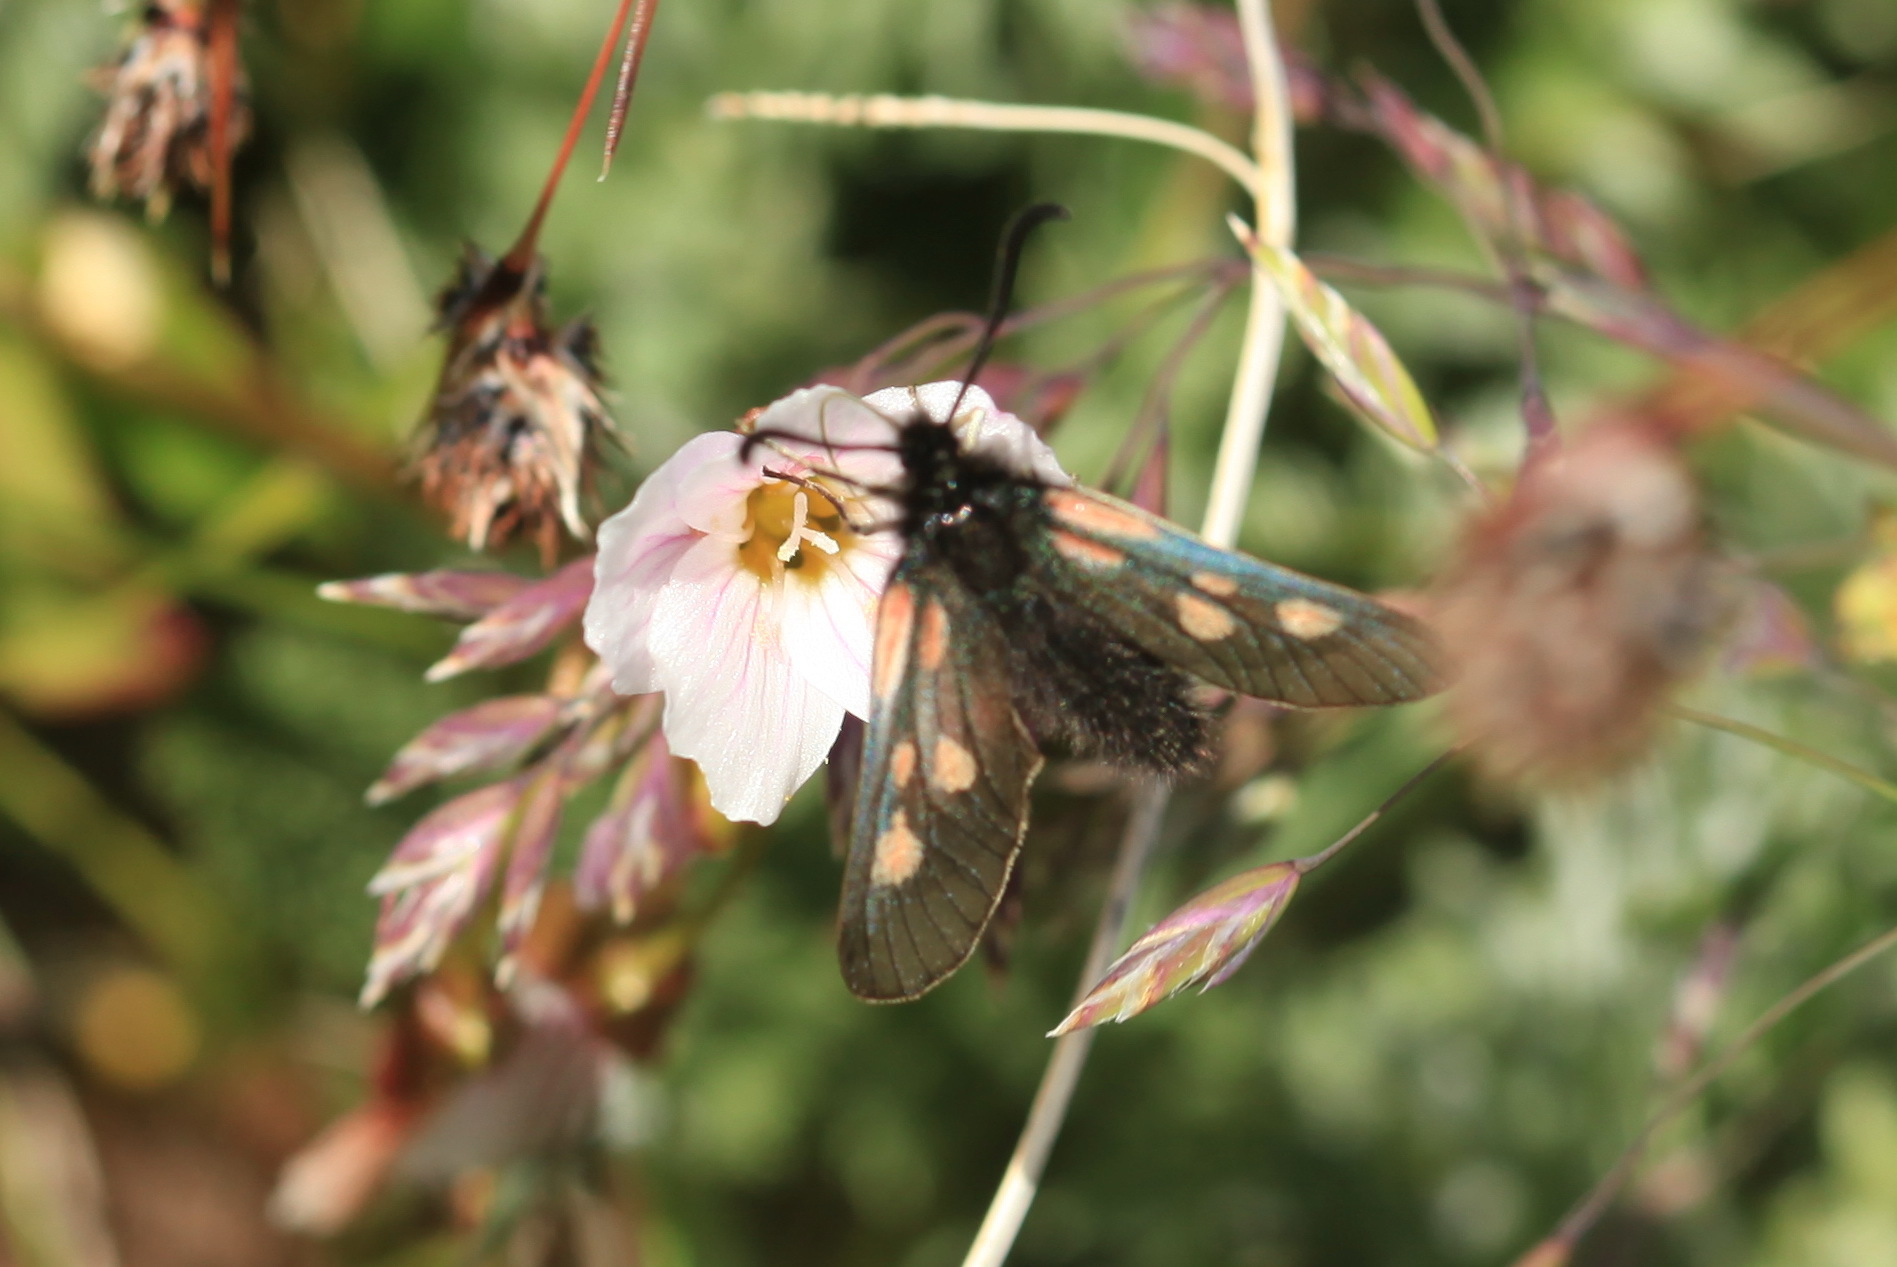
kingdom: Animalia
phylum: Arthropoda
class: Insecta
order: Lepidoptera
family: Zygaenidae
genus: Zygaena
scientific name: Zygaena exulans
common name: Scotch burnet
